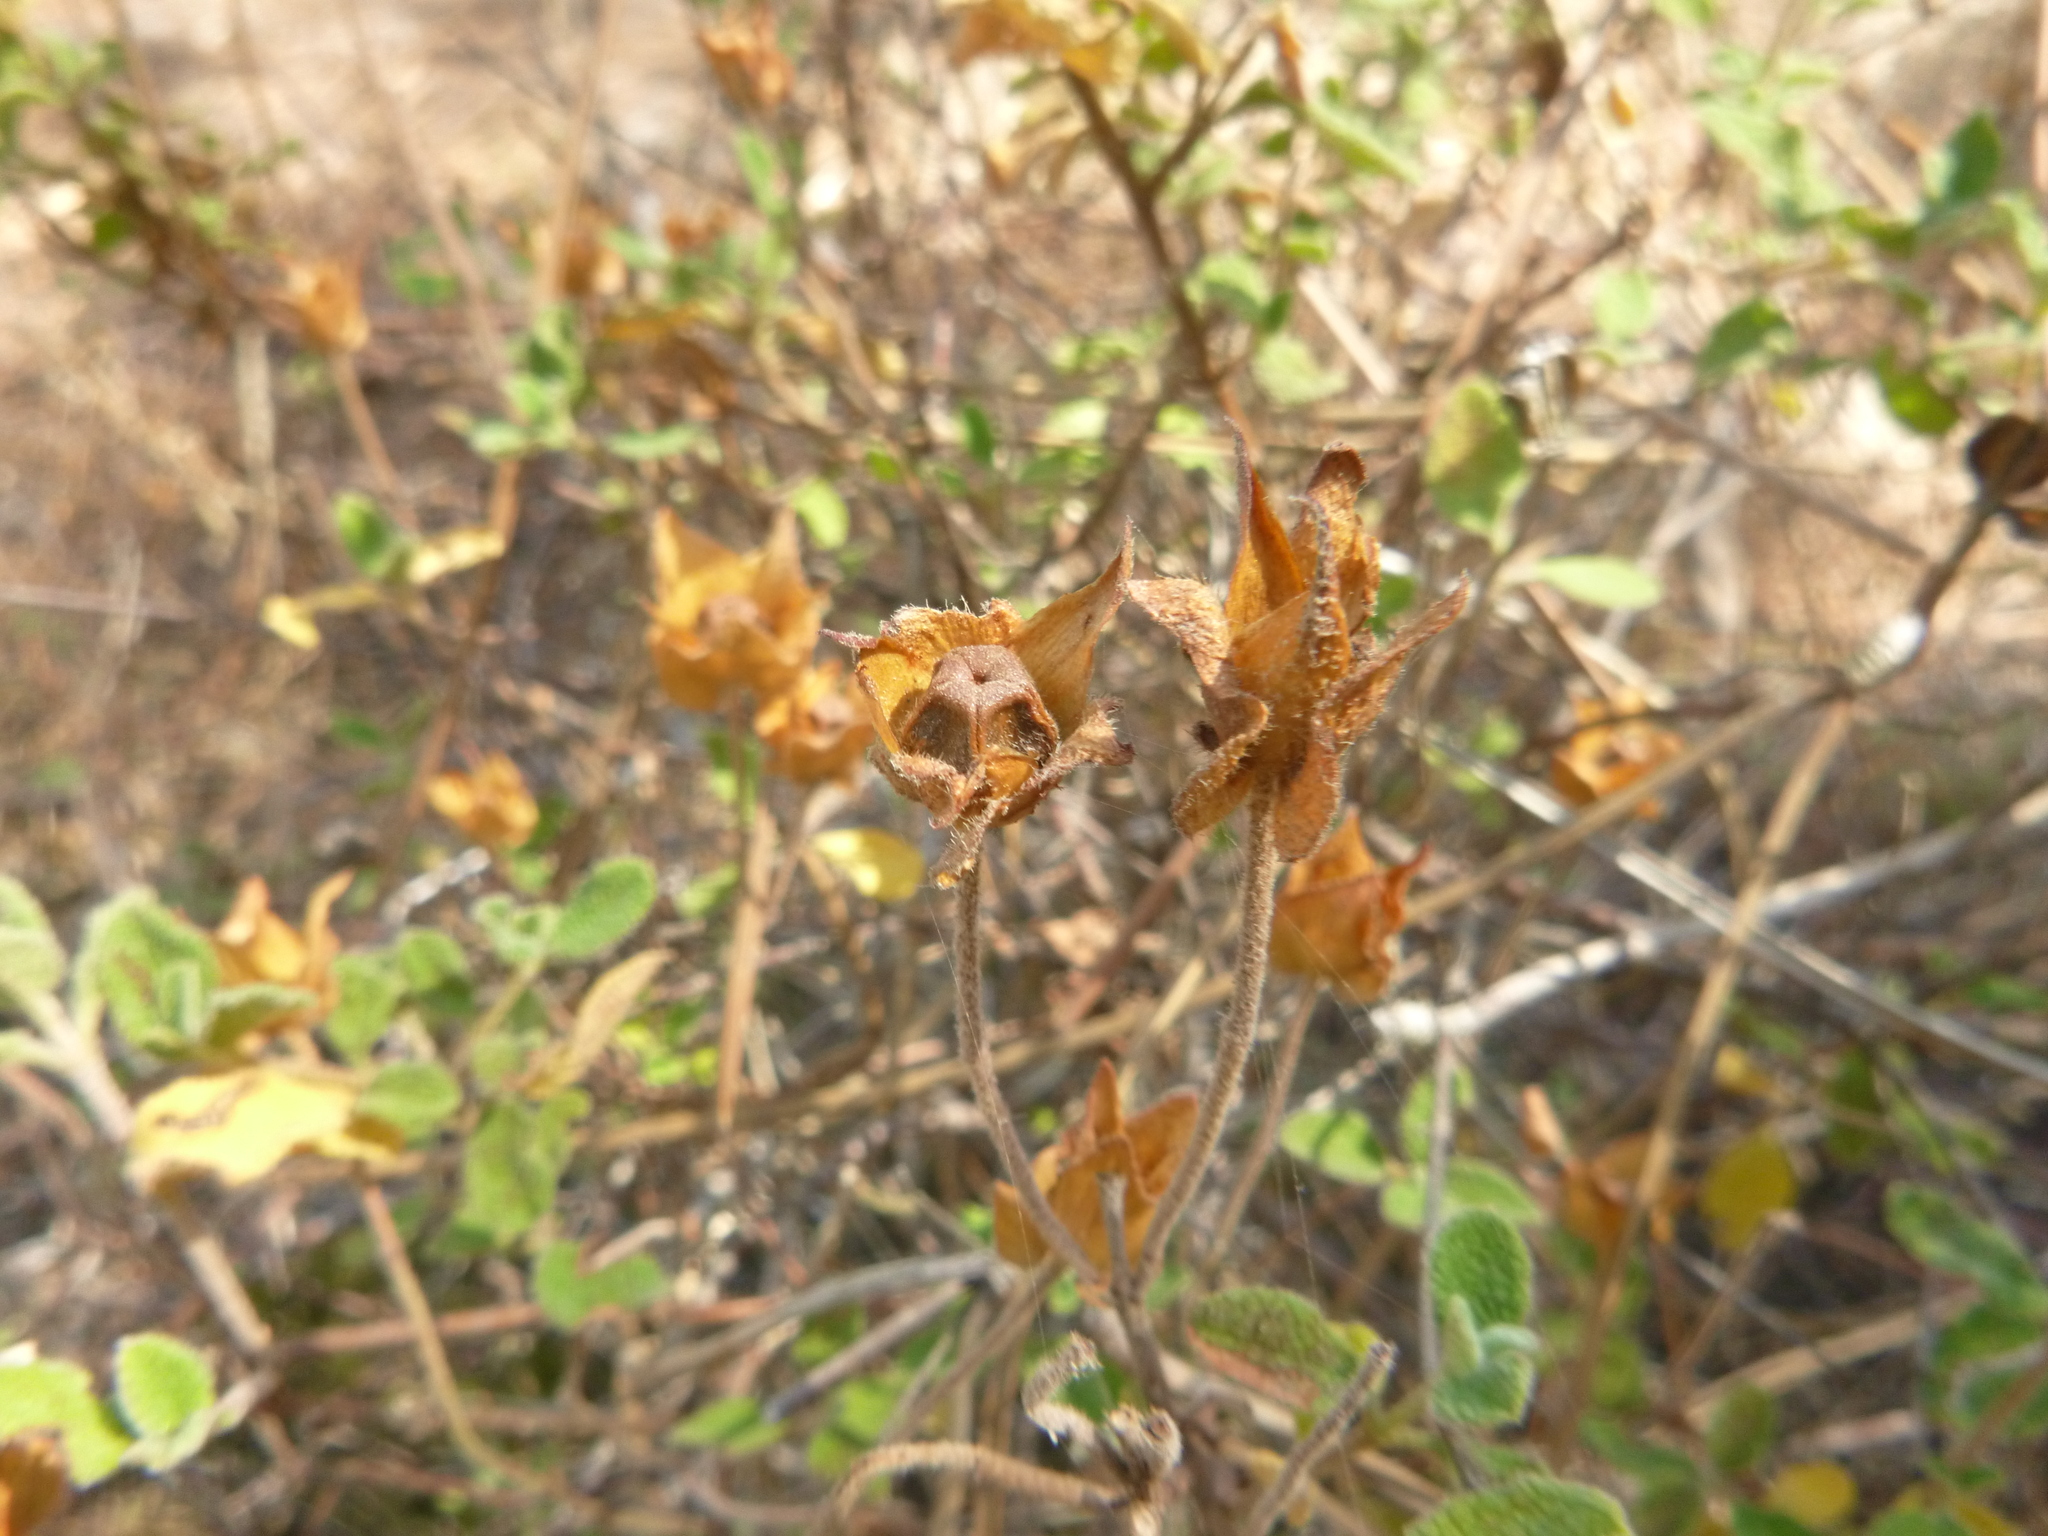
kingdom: Plantae
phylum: Tracheophyta
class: Magnoliopsida
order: Malvales
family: Cistaceae
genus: Cistus
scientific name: Cistus salviifolius
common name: Salvia cistus
